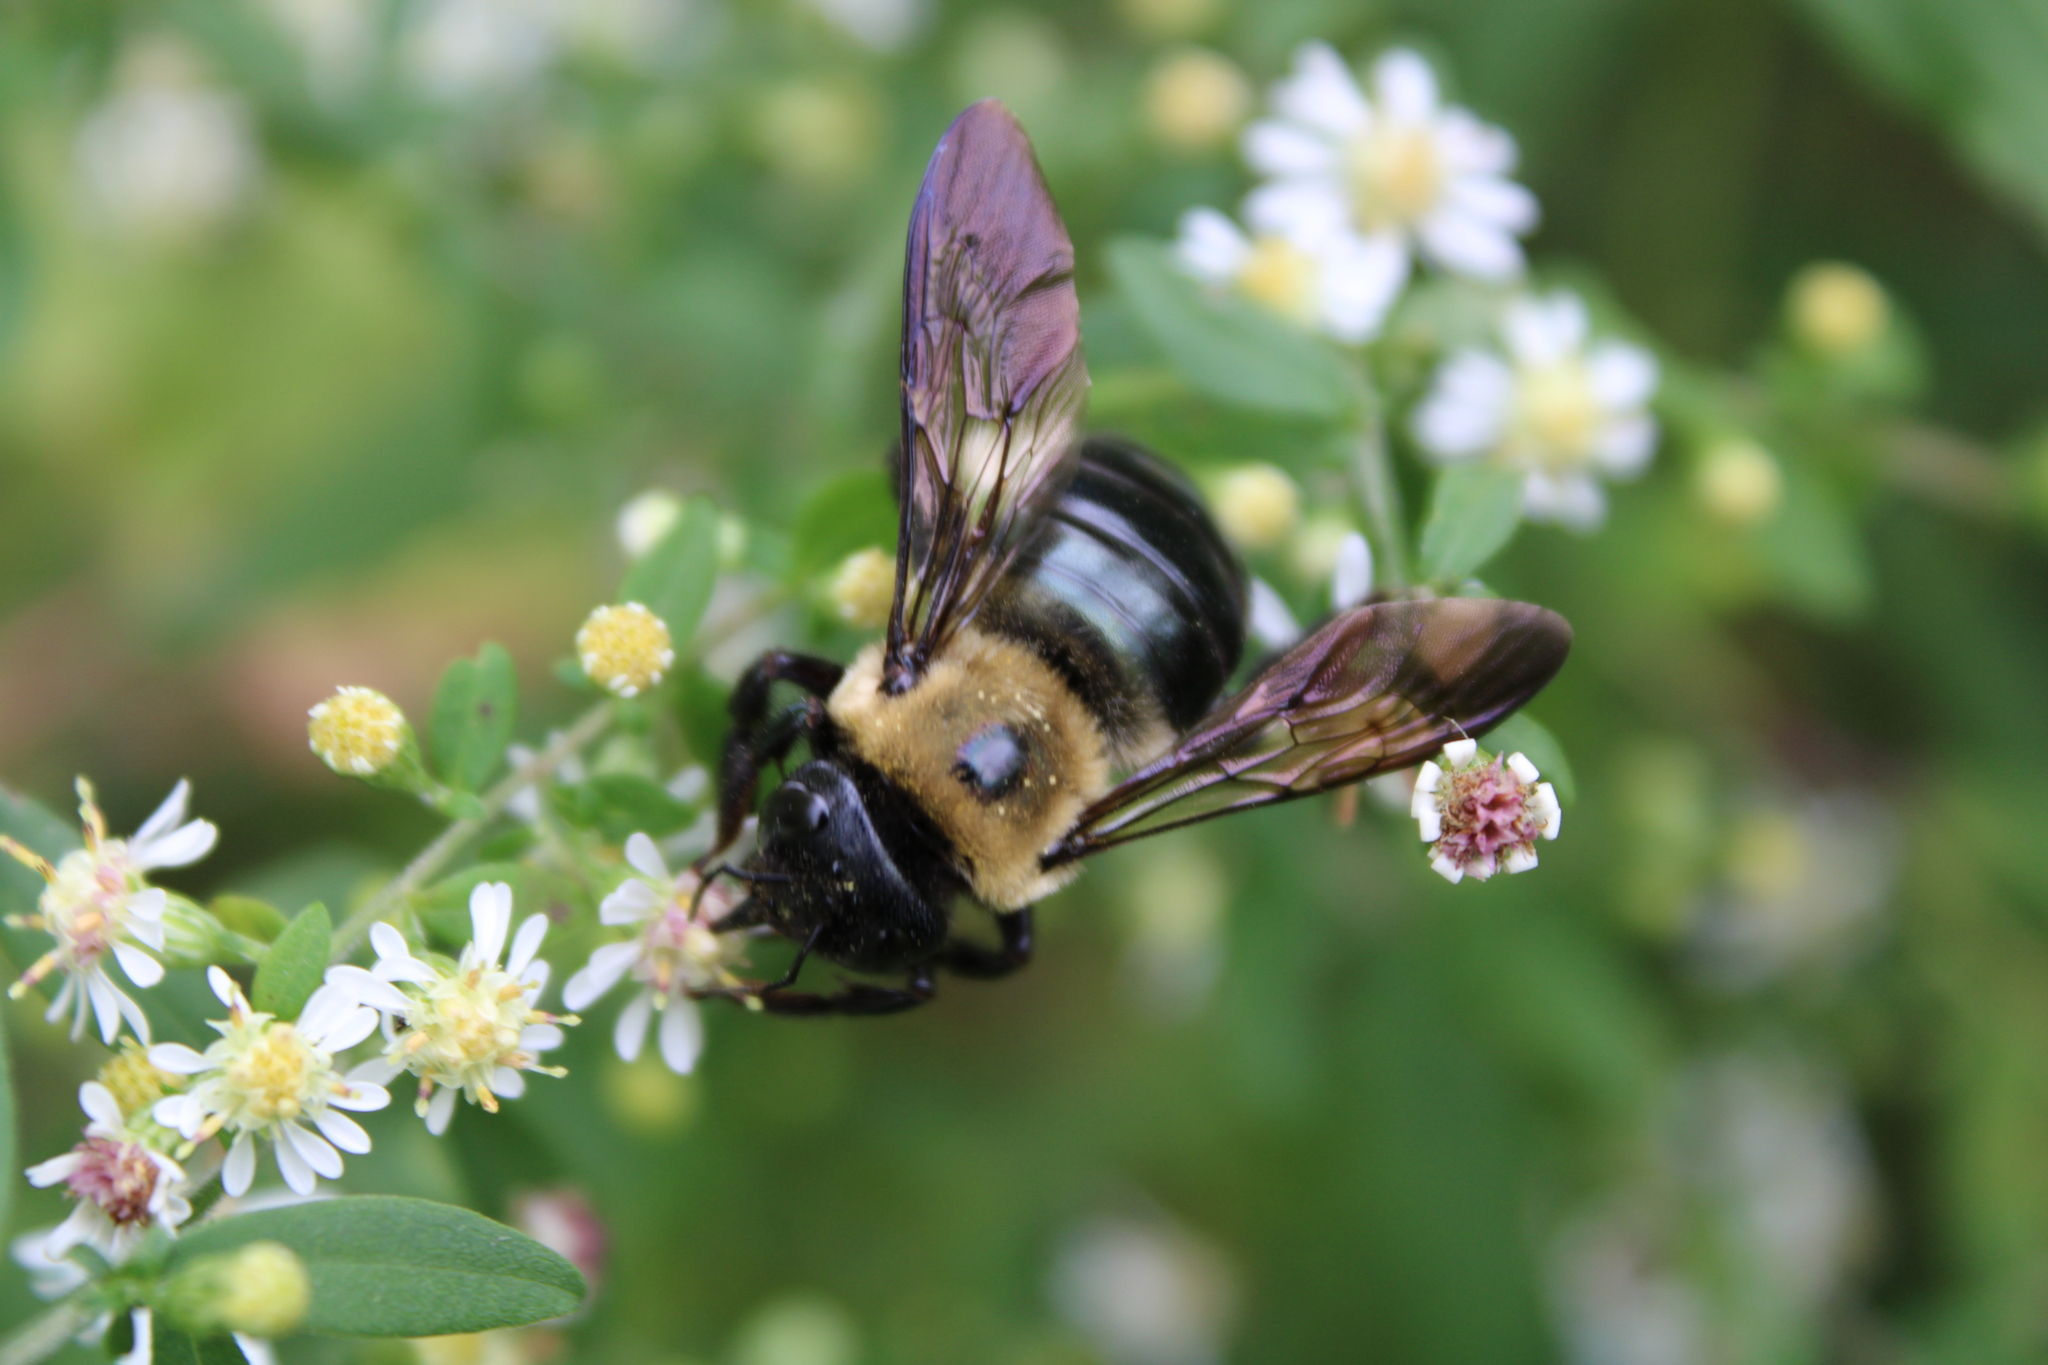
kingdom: Animalia
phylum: Arthropoda
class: Insecta
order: Hymenoptera
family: Apidae
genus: Xylocopa
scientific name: Xylocopa virginica
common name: Carpenter bee
